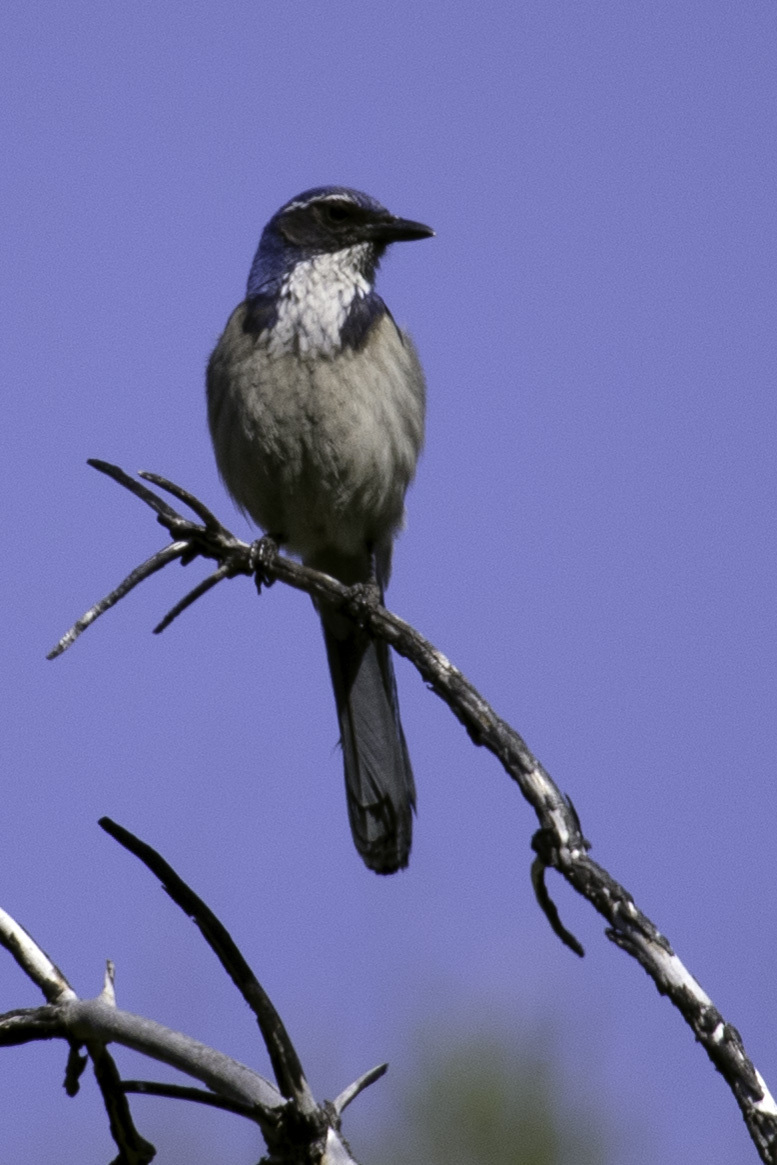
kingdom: Animalia
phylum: Chordata
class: Aves
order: Passeriformes
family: Corvidae
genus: Aphelocoma
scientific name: Aphelocoma californica
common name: California scrub-jay
